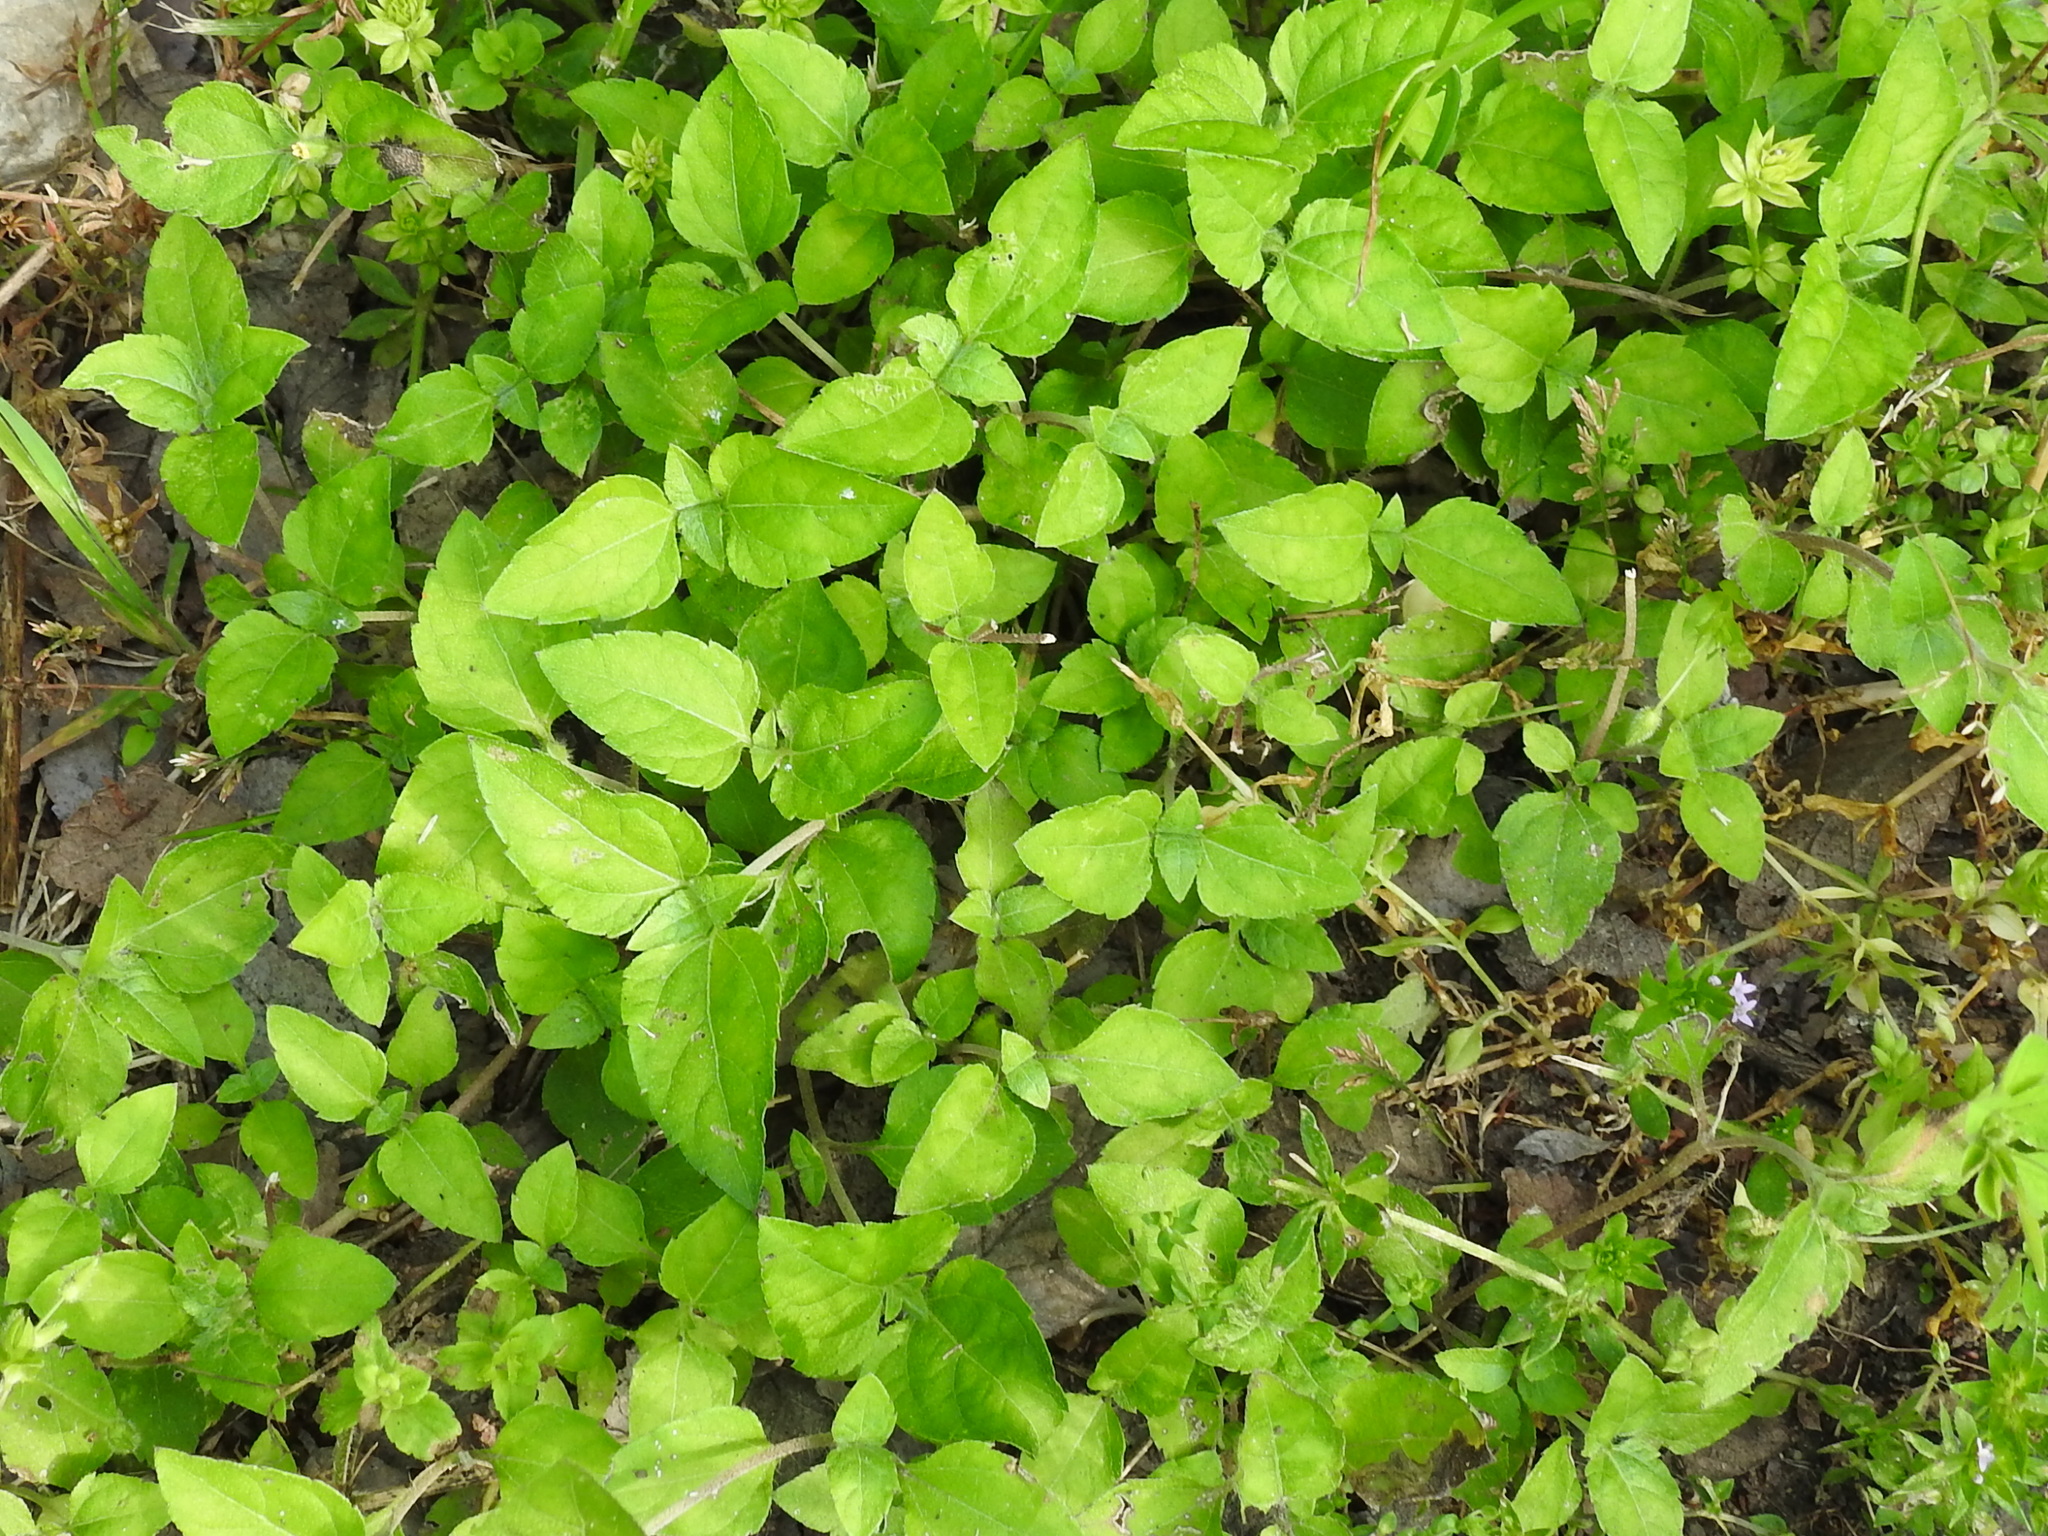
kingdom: Plantae
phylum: Tracheophyta
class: Magnoliopsida
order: Asterales
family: Asteraceae
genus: Calyptocarpus
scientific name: Calyptocarpus vialis
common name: Straggler daisy
